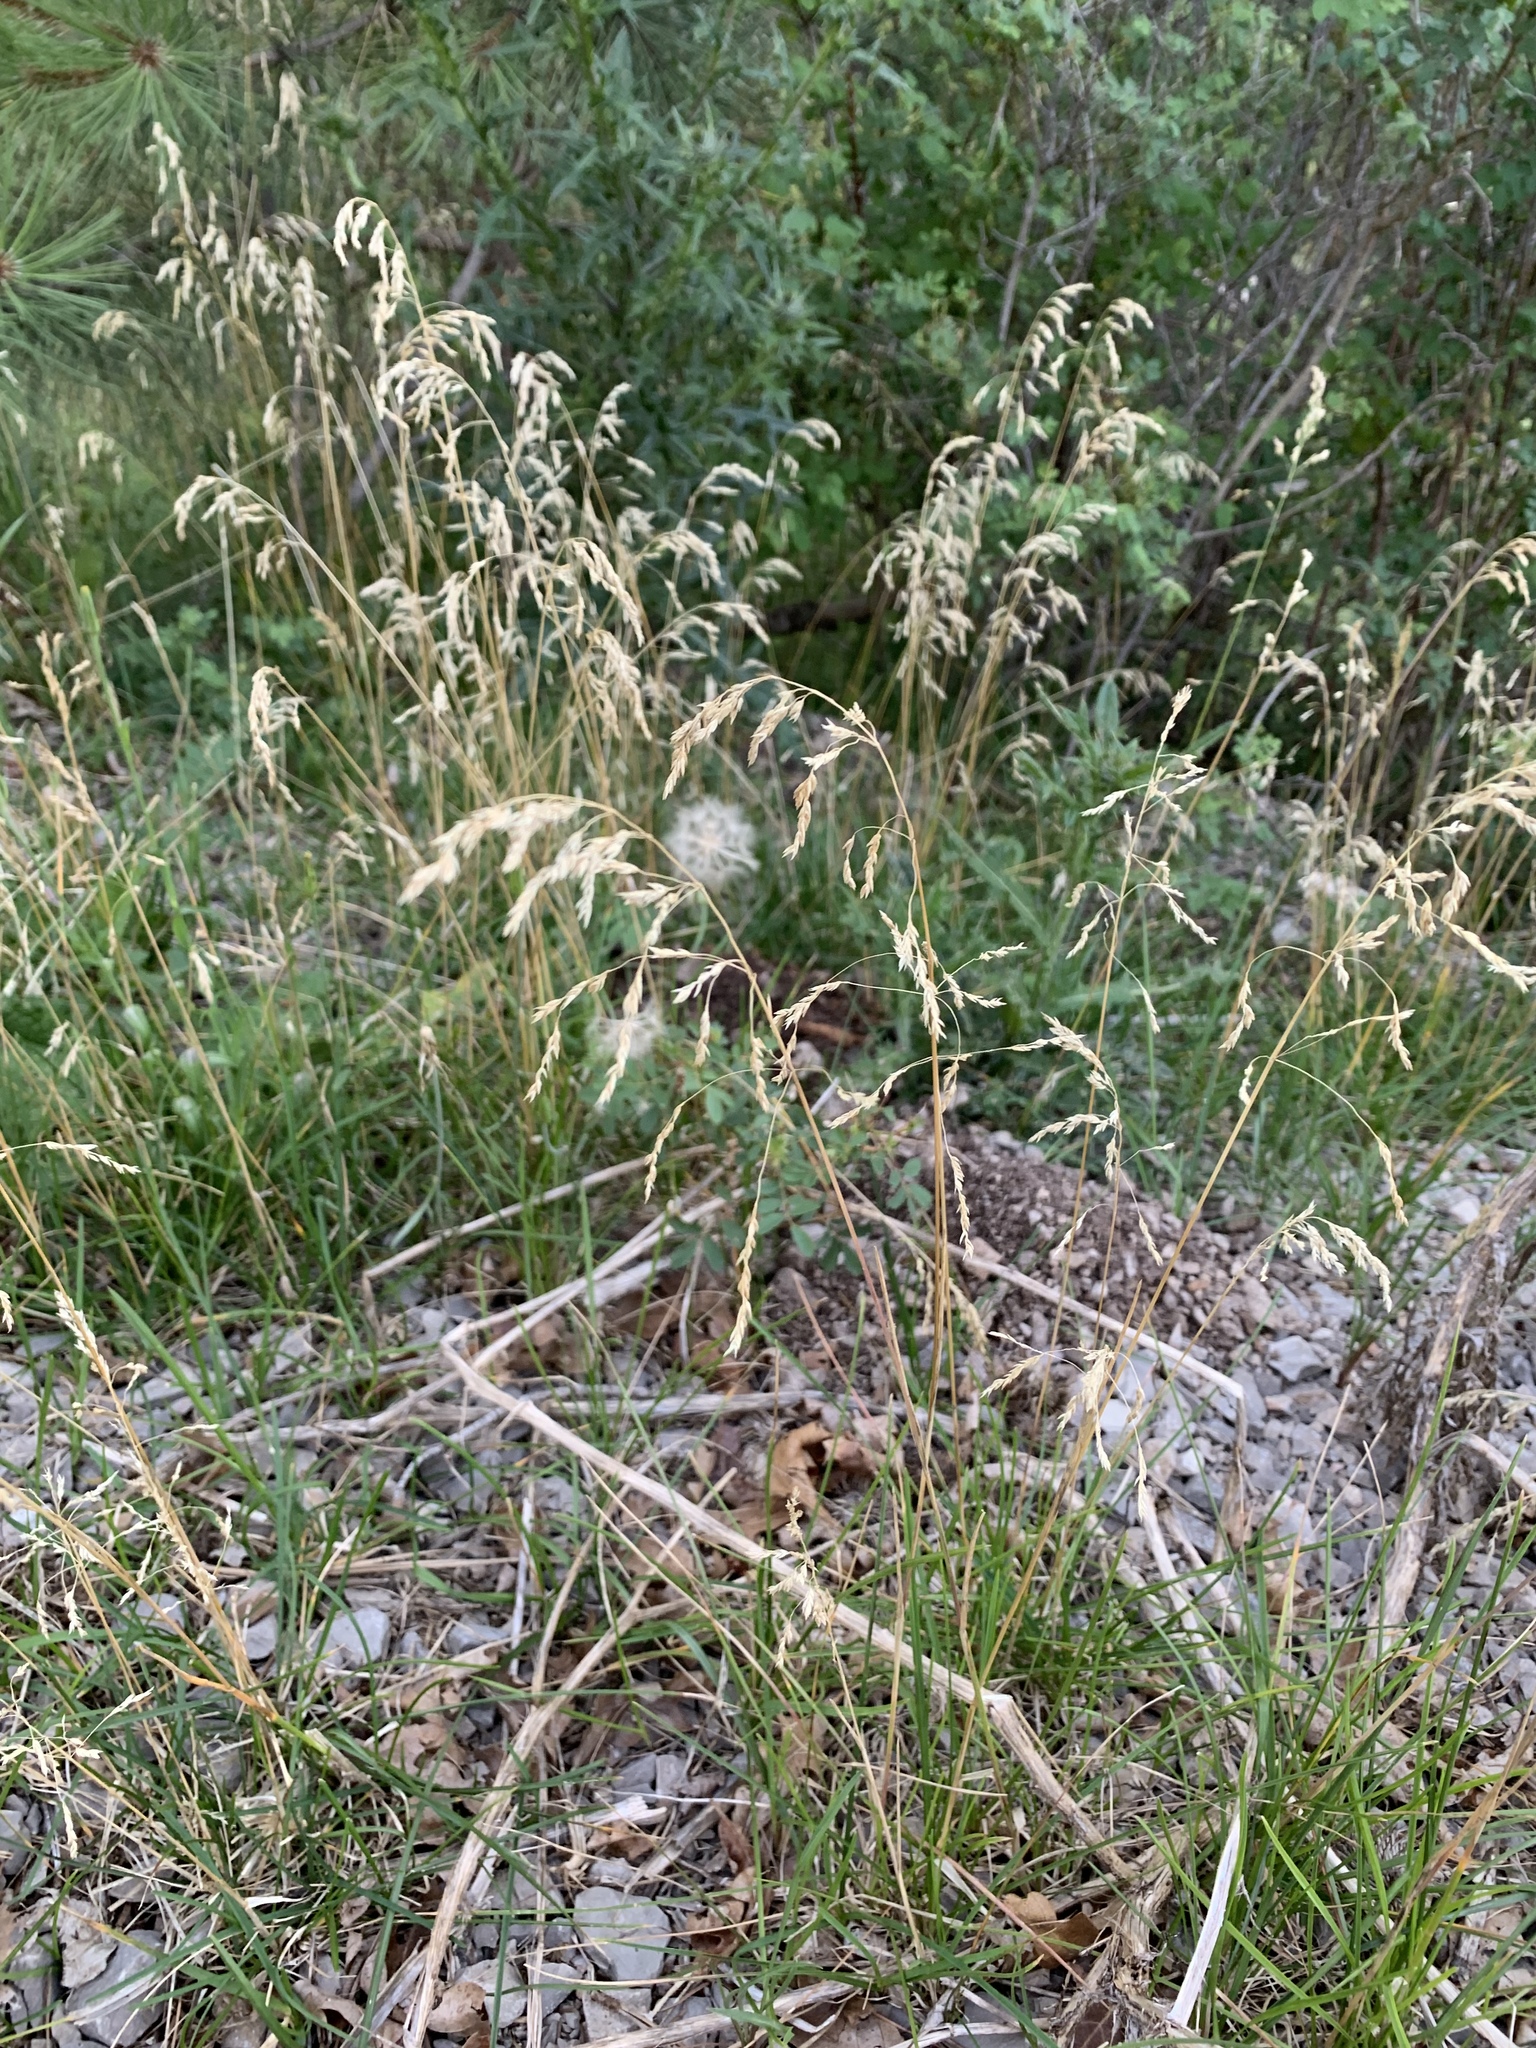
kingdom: Plantae
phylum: Tracheophyta
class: Liliopsida
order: Poales
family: Poaceae
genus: Deschampsia
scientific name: Deschampsia cespitosa
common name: Tufted hair-grass
